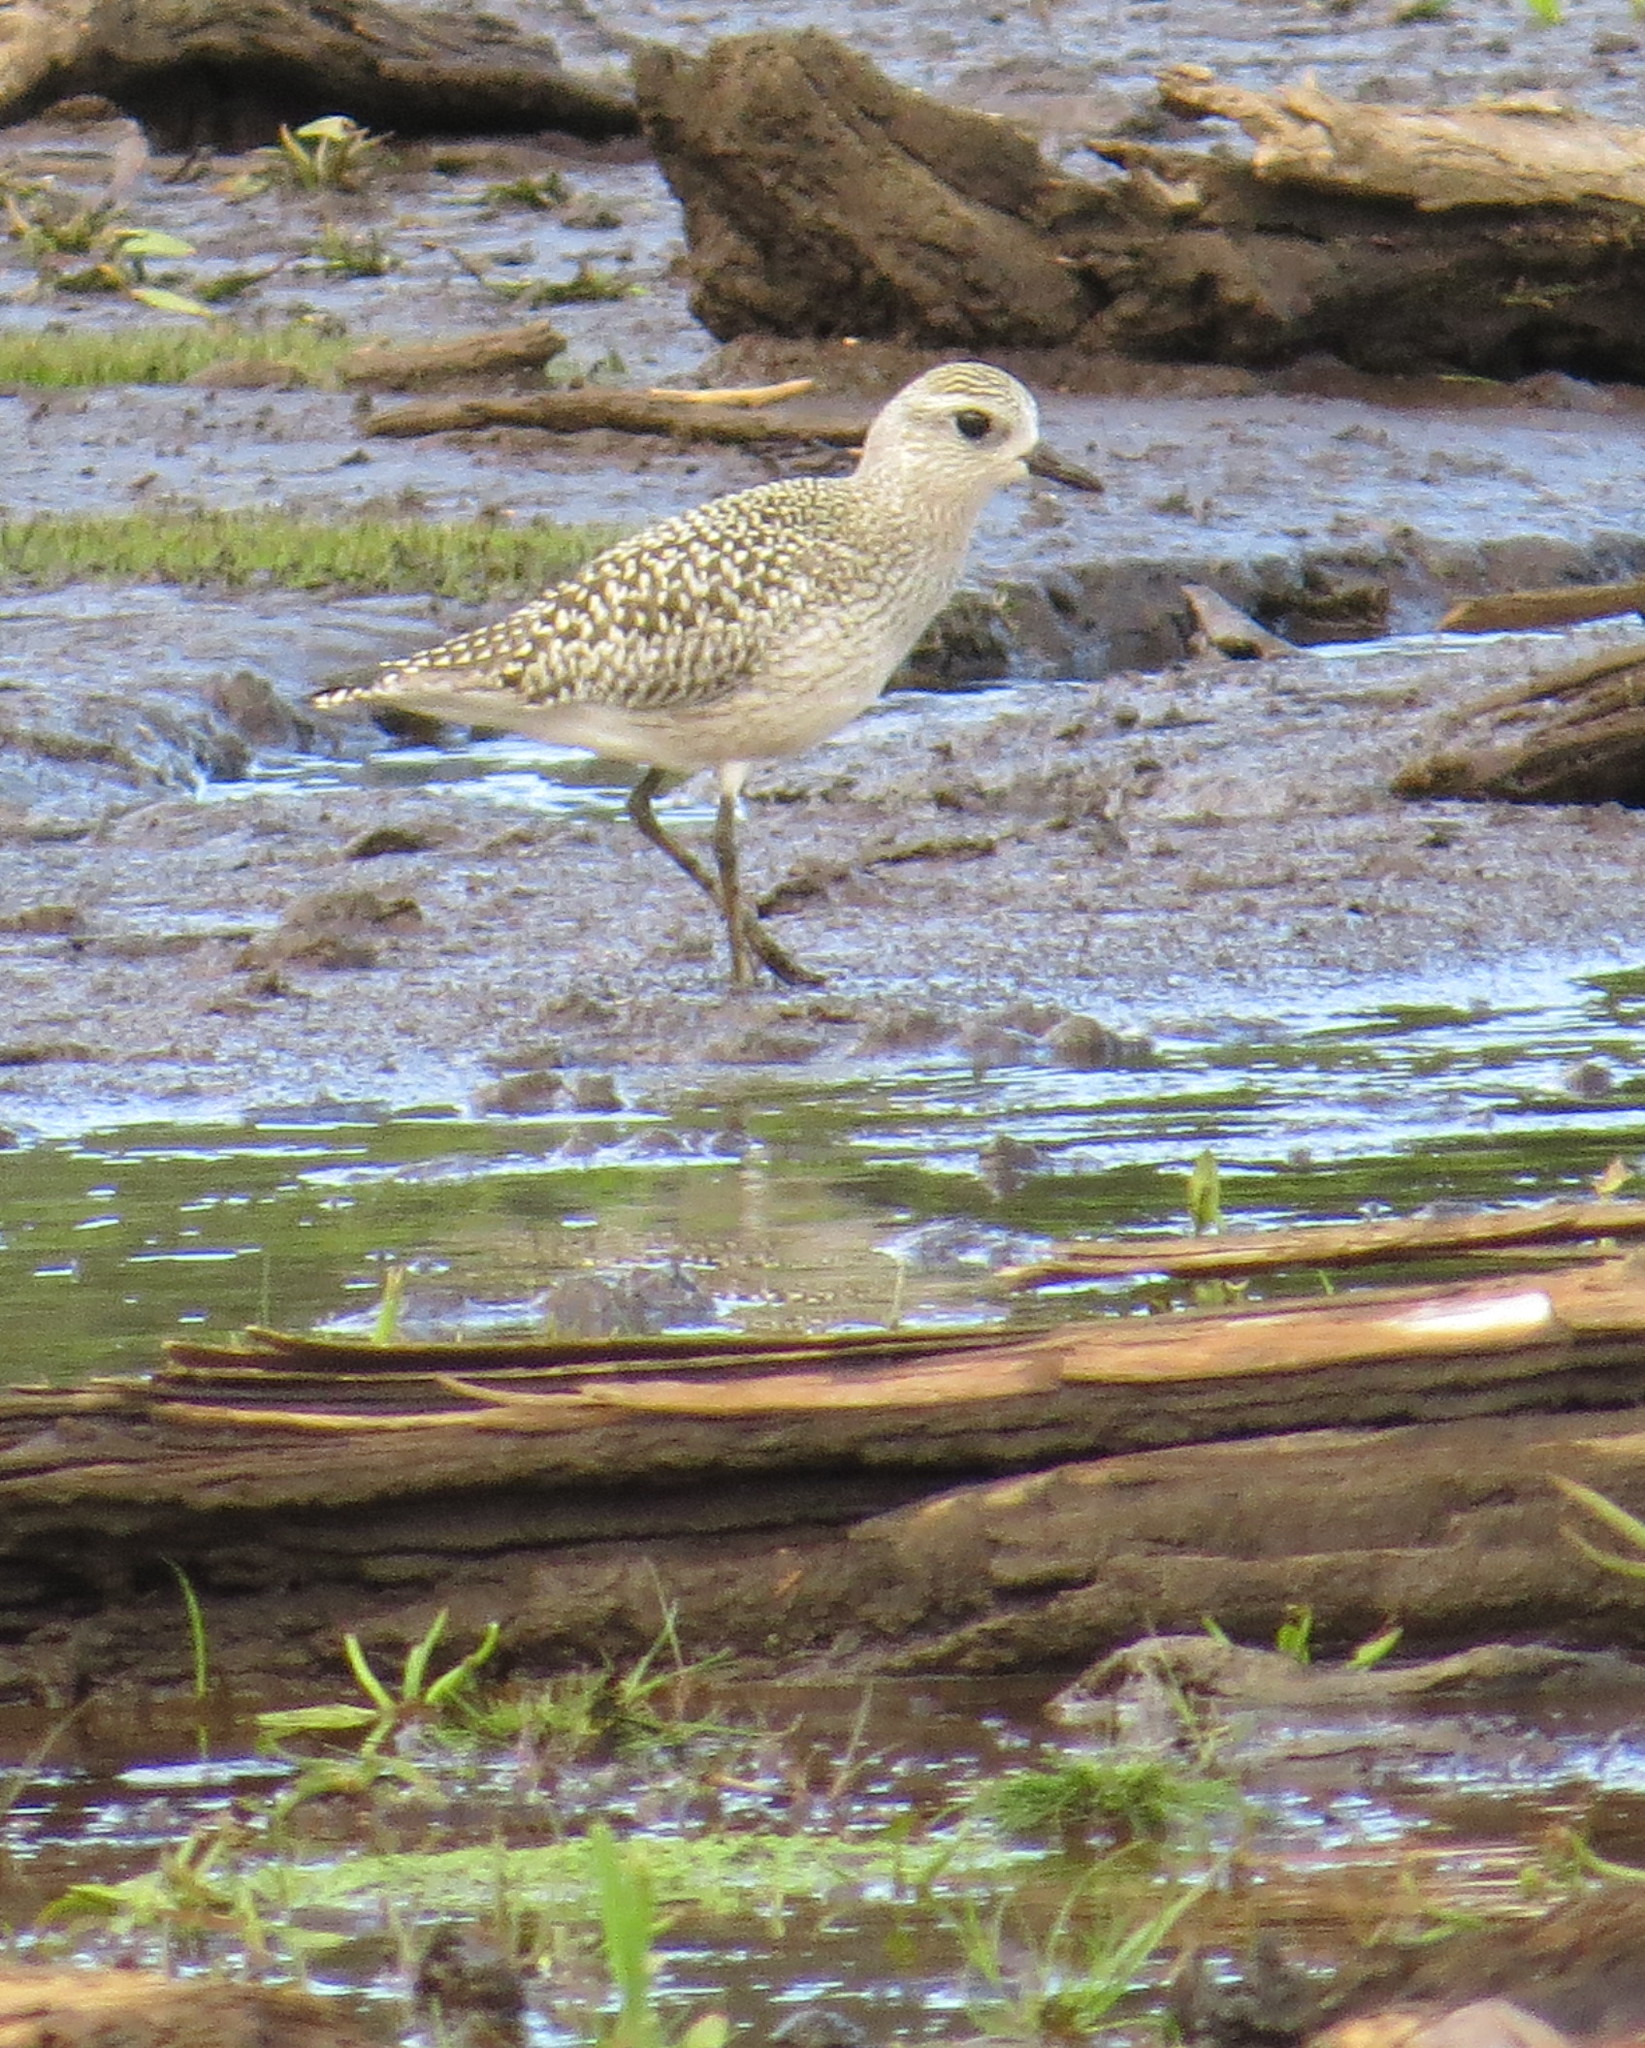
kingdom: Animalia
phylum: Chordata
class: Aves
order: Charadriiformes
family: Charadriidae
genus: Pluvialis
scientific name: Pluvialis squatarola
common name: Grey plover
